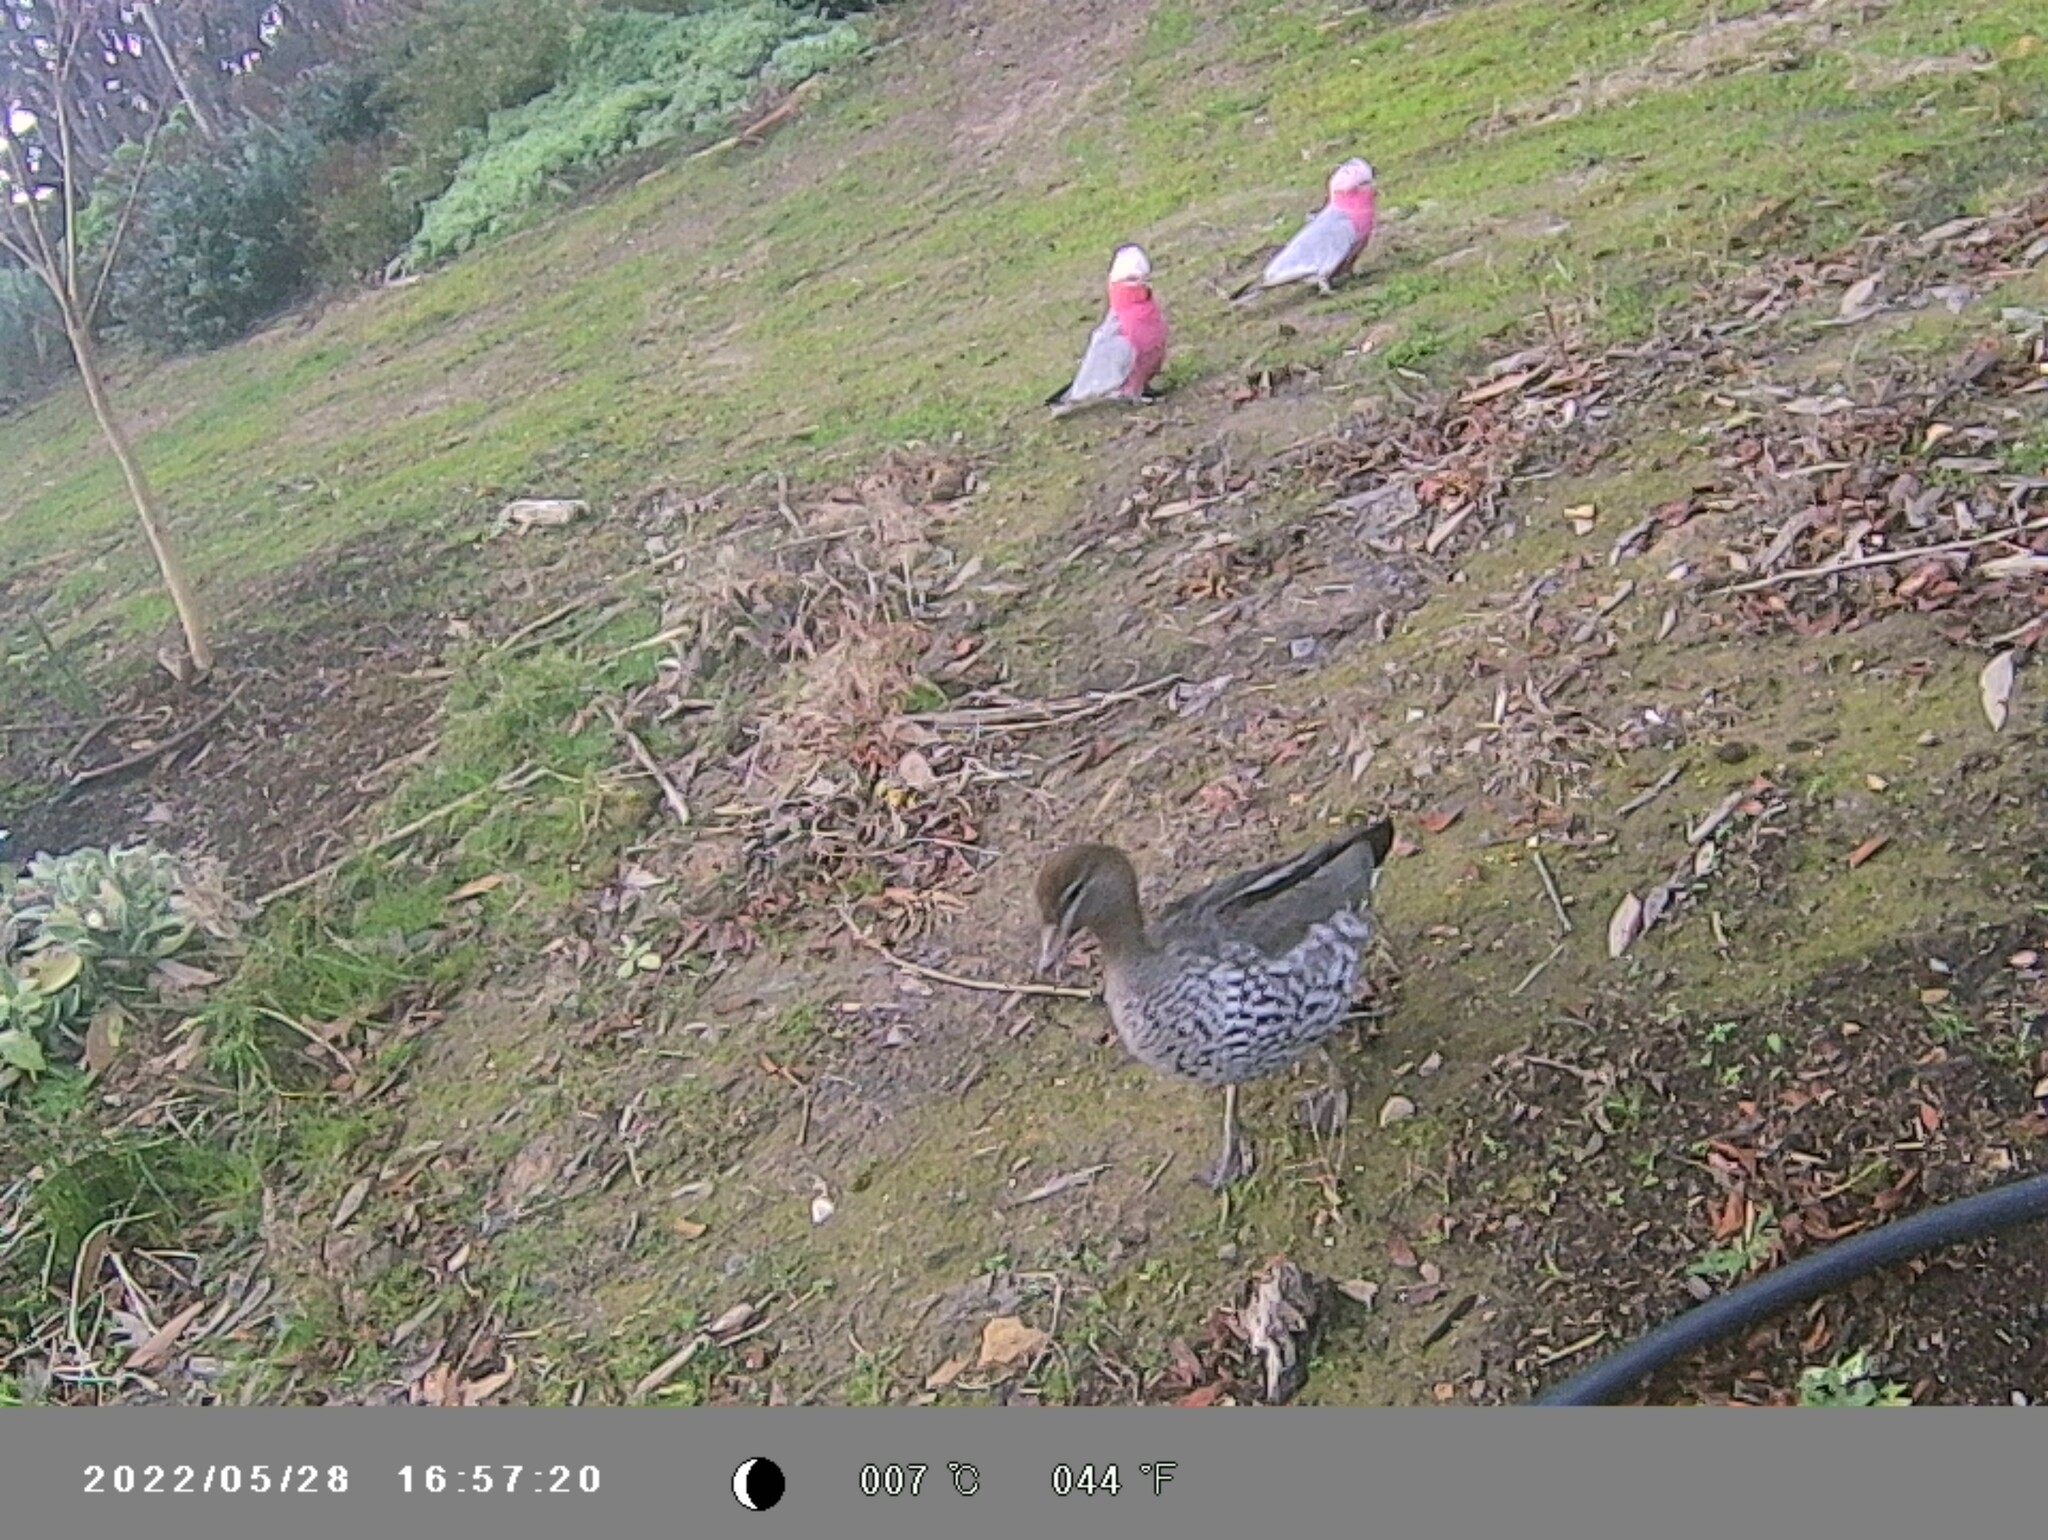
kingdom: Animalia
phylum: Chordata
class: Aves
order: Psittaciformes
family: Psittacidae
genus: Eolophus
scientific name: Eolophus roseicapilla
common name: Galah
